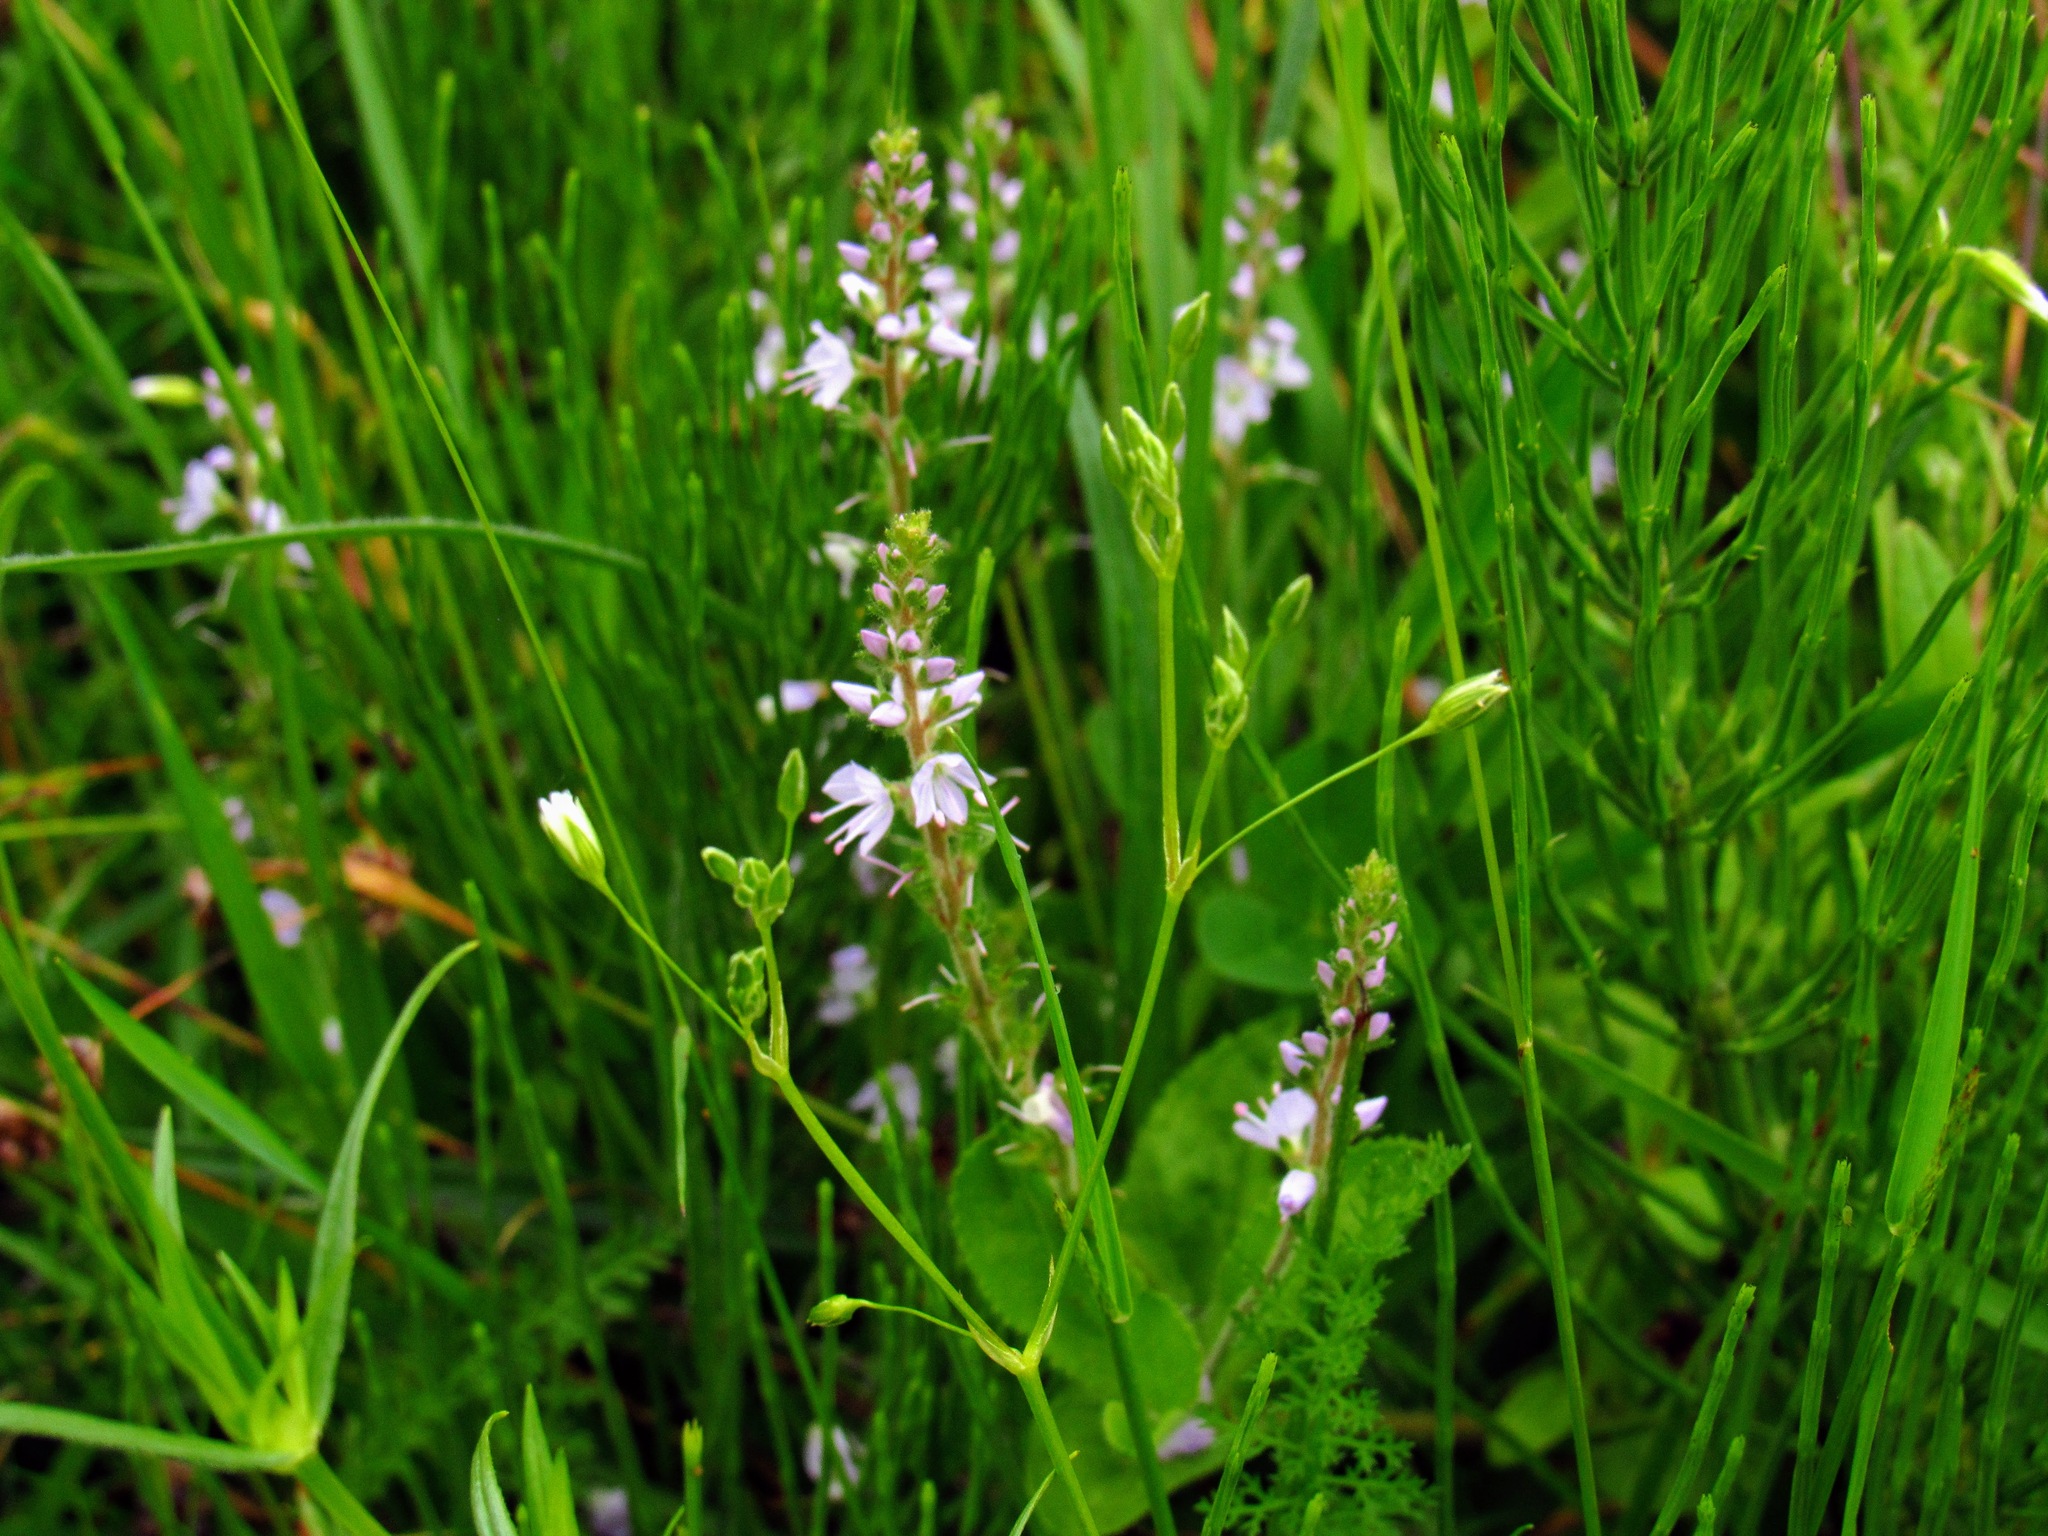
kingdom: Plantae
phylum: Tracheophyta
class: Magnoliopsida
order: Lamiales
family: Plantaginaceae
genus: Veronica
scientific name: Veronica officinalis
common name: Common speedwell
